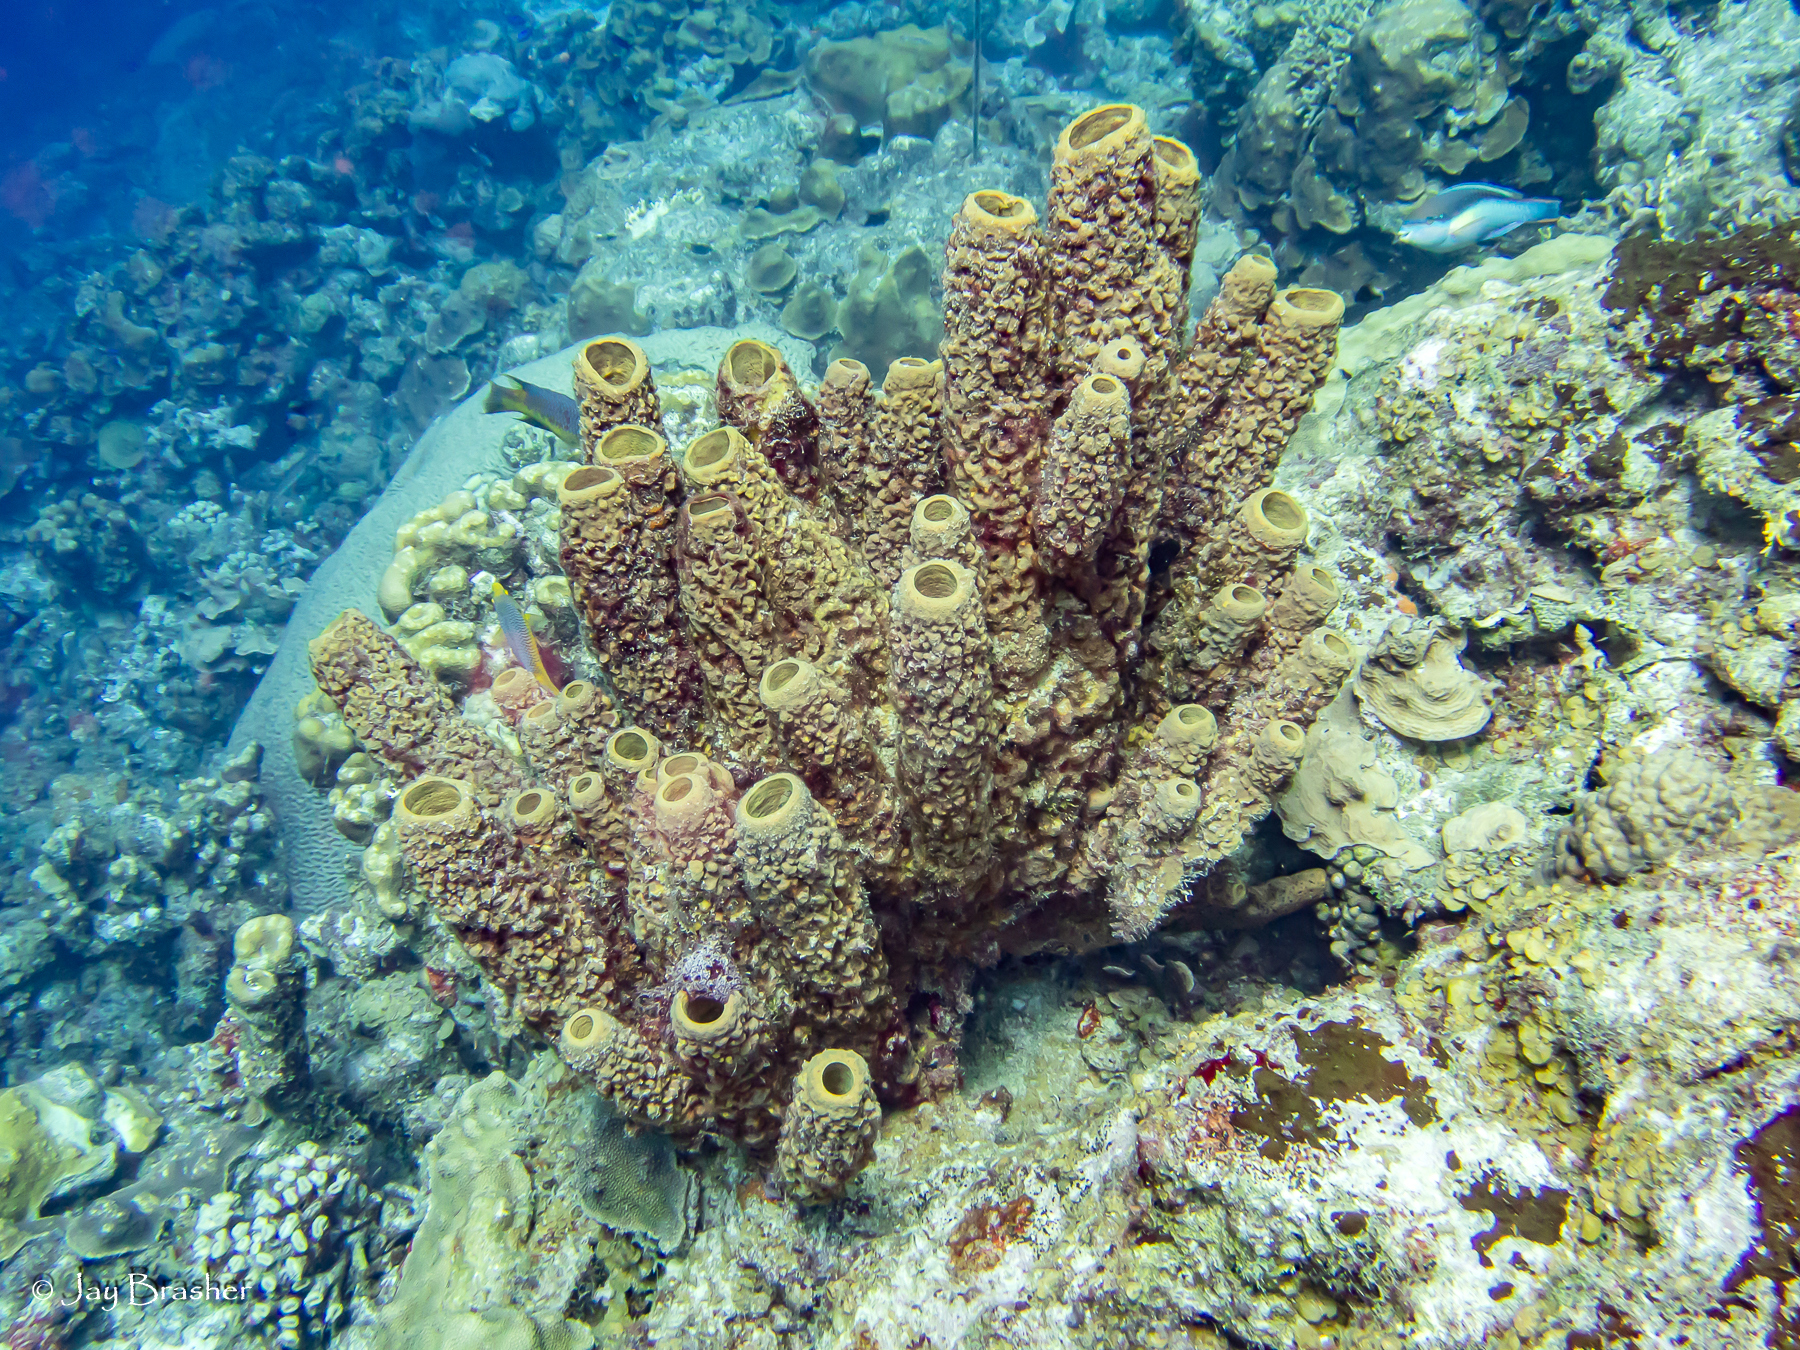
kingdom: Animalia
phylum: Porifera
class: Demospongiae
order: Verongiida
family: Aplysinidae
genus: Aplysina
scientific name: Aplysina archeri
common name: Stove-pipe sponge
